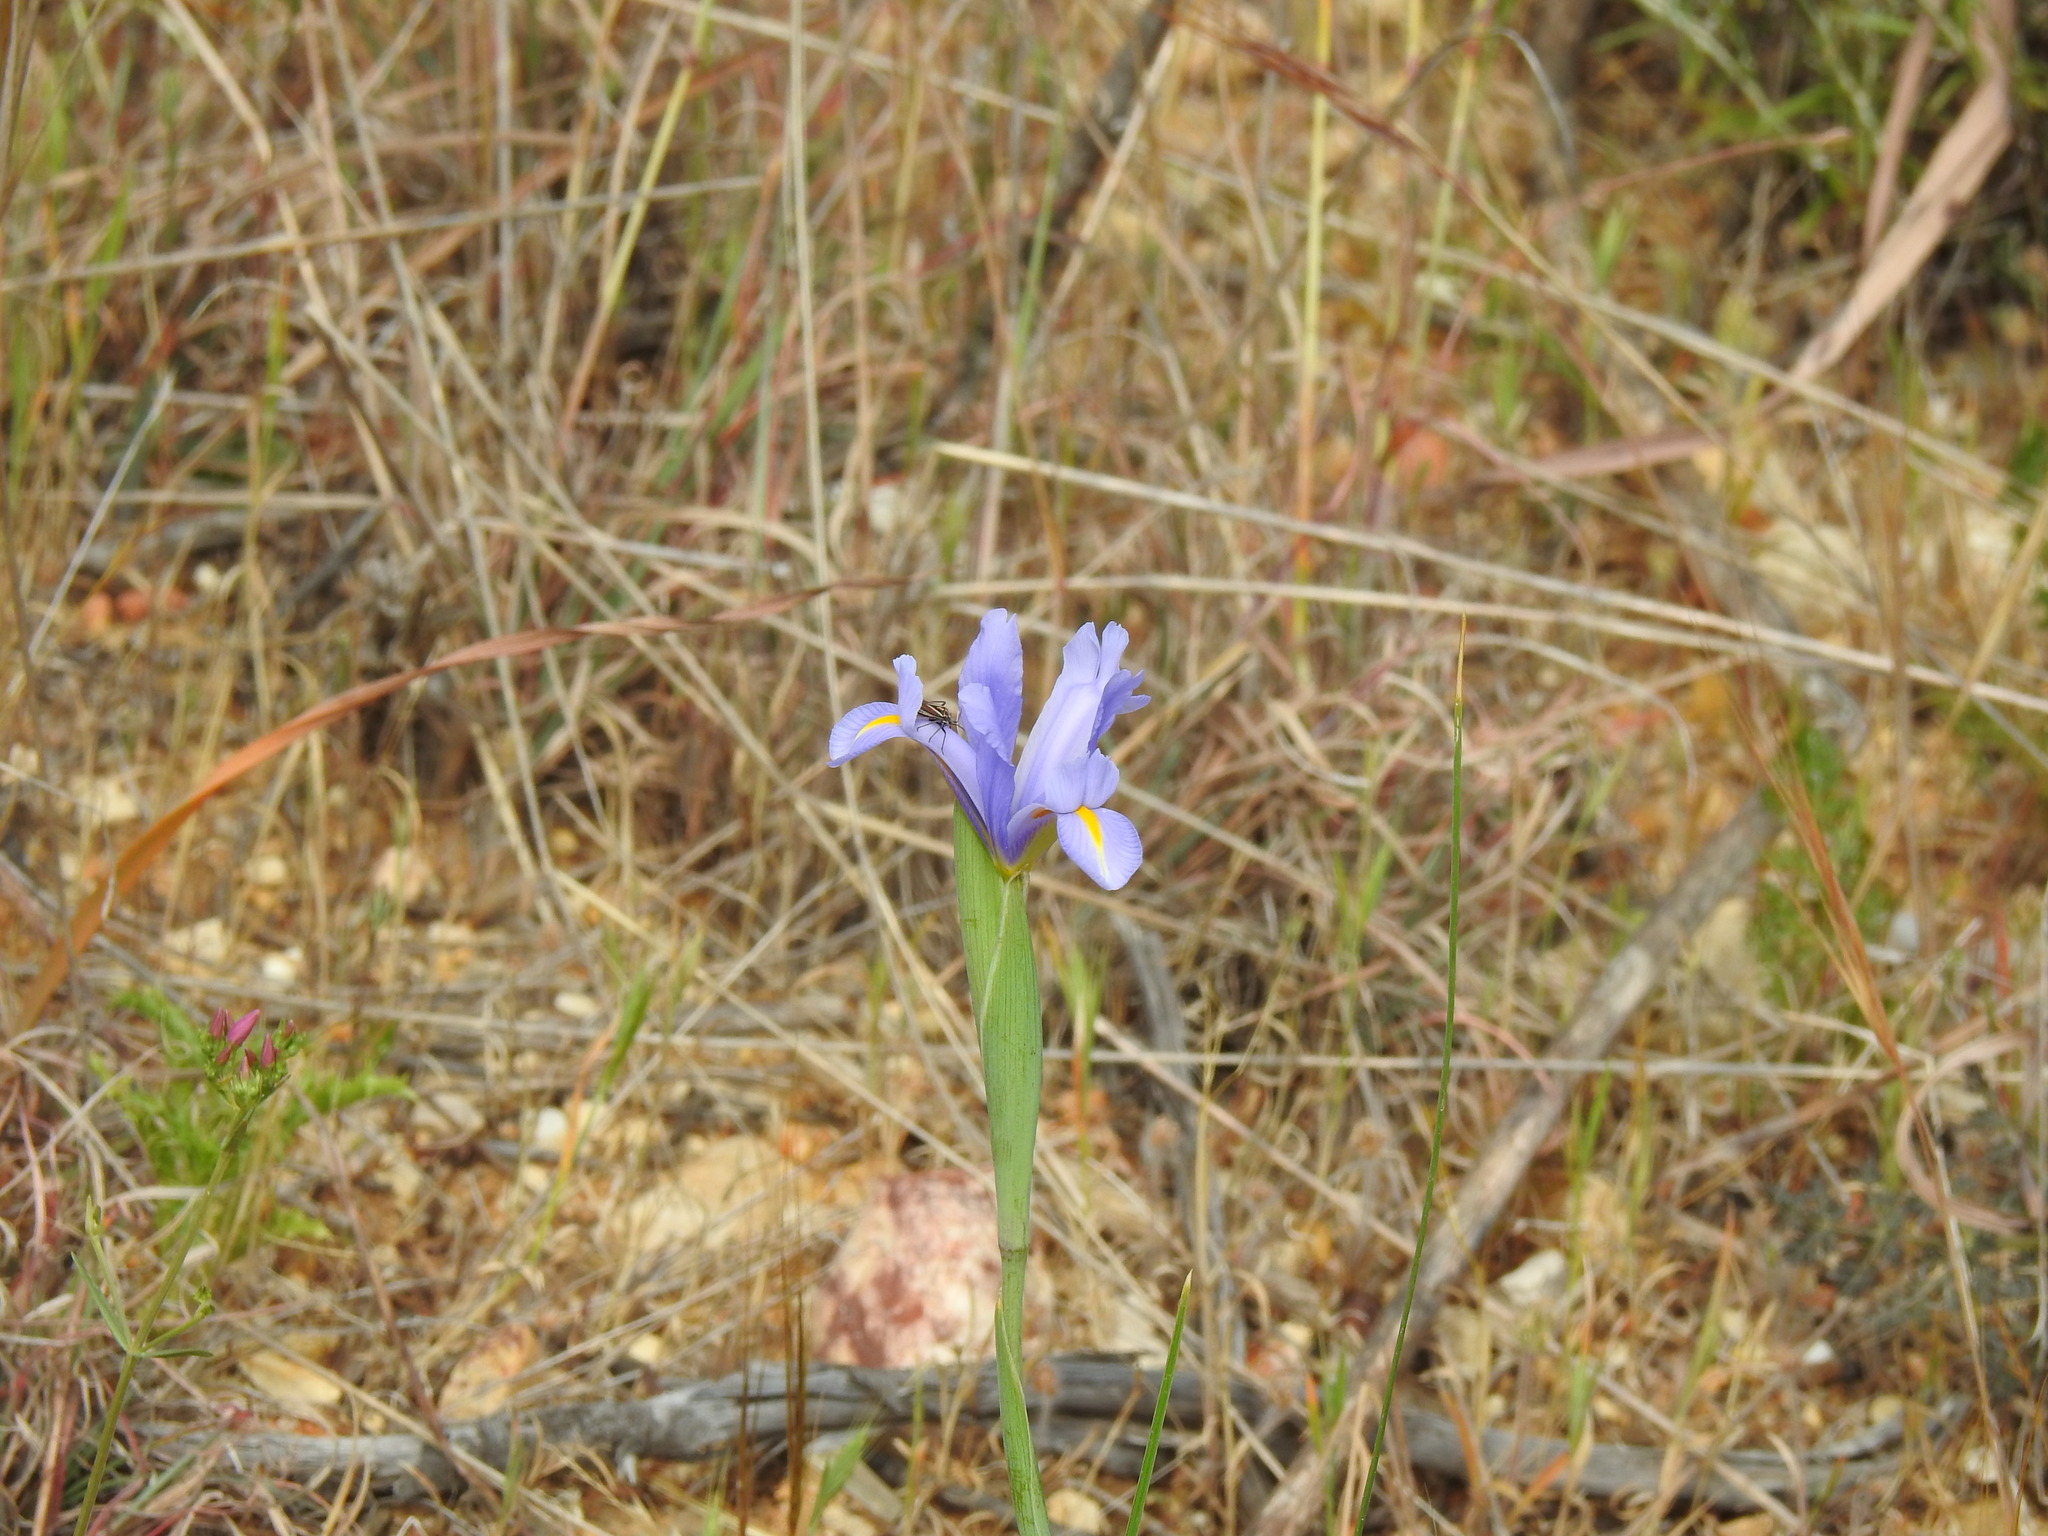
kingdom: Plantae
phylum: Tracheophyta
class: Liliopsida
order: Asparagales
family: Iridaceae
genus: Iris
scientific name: Iris xiphium
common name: Spanish iris
